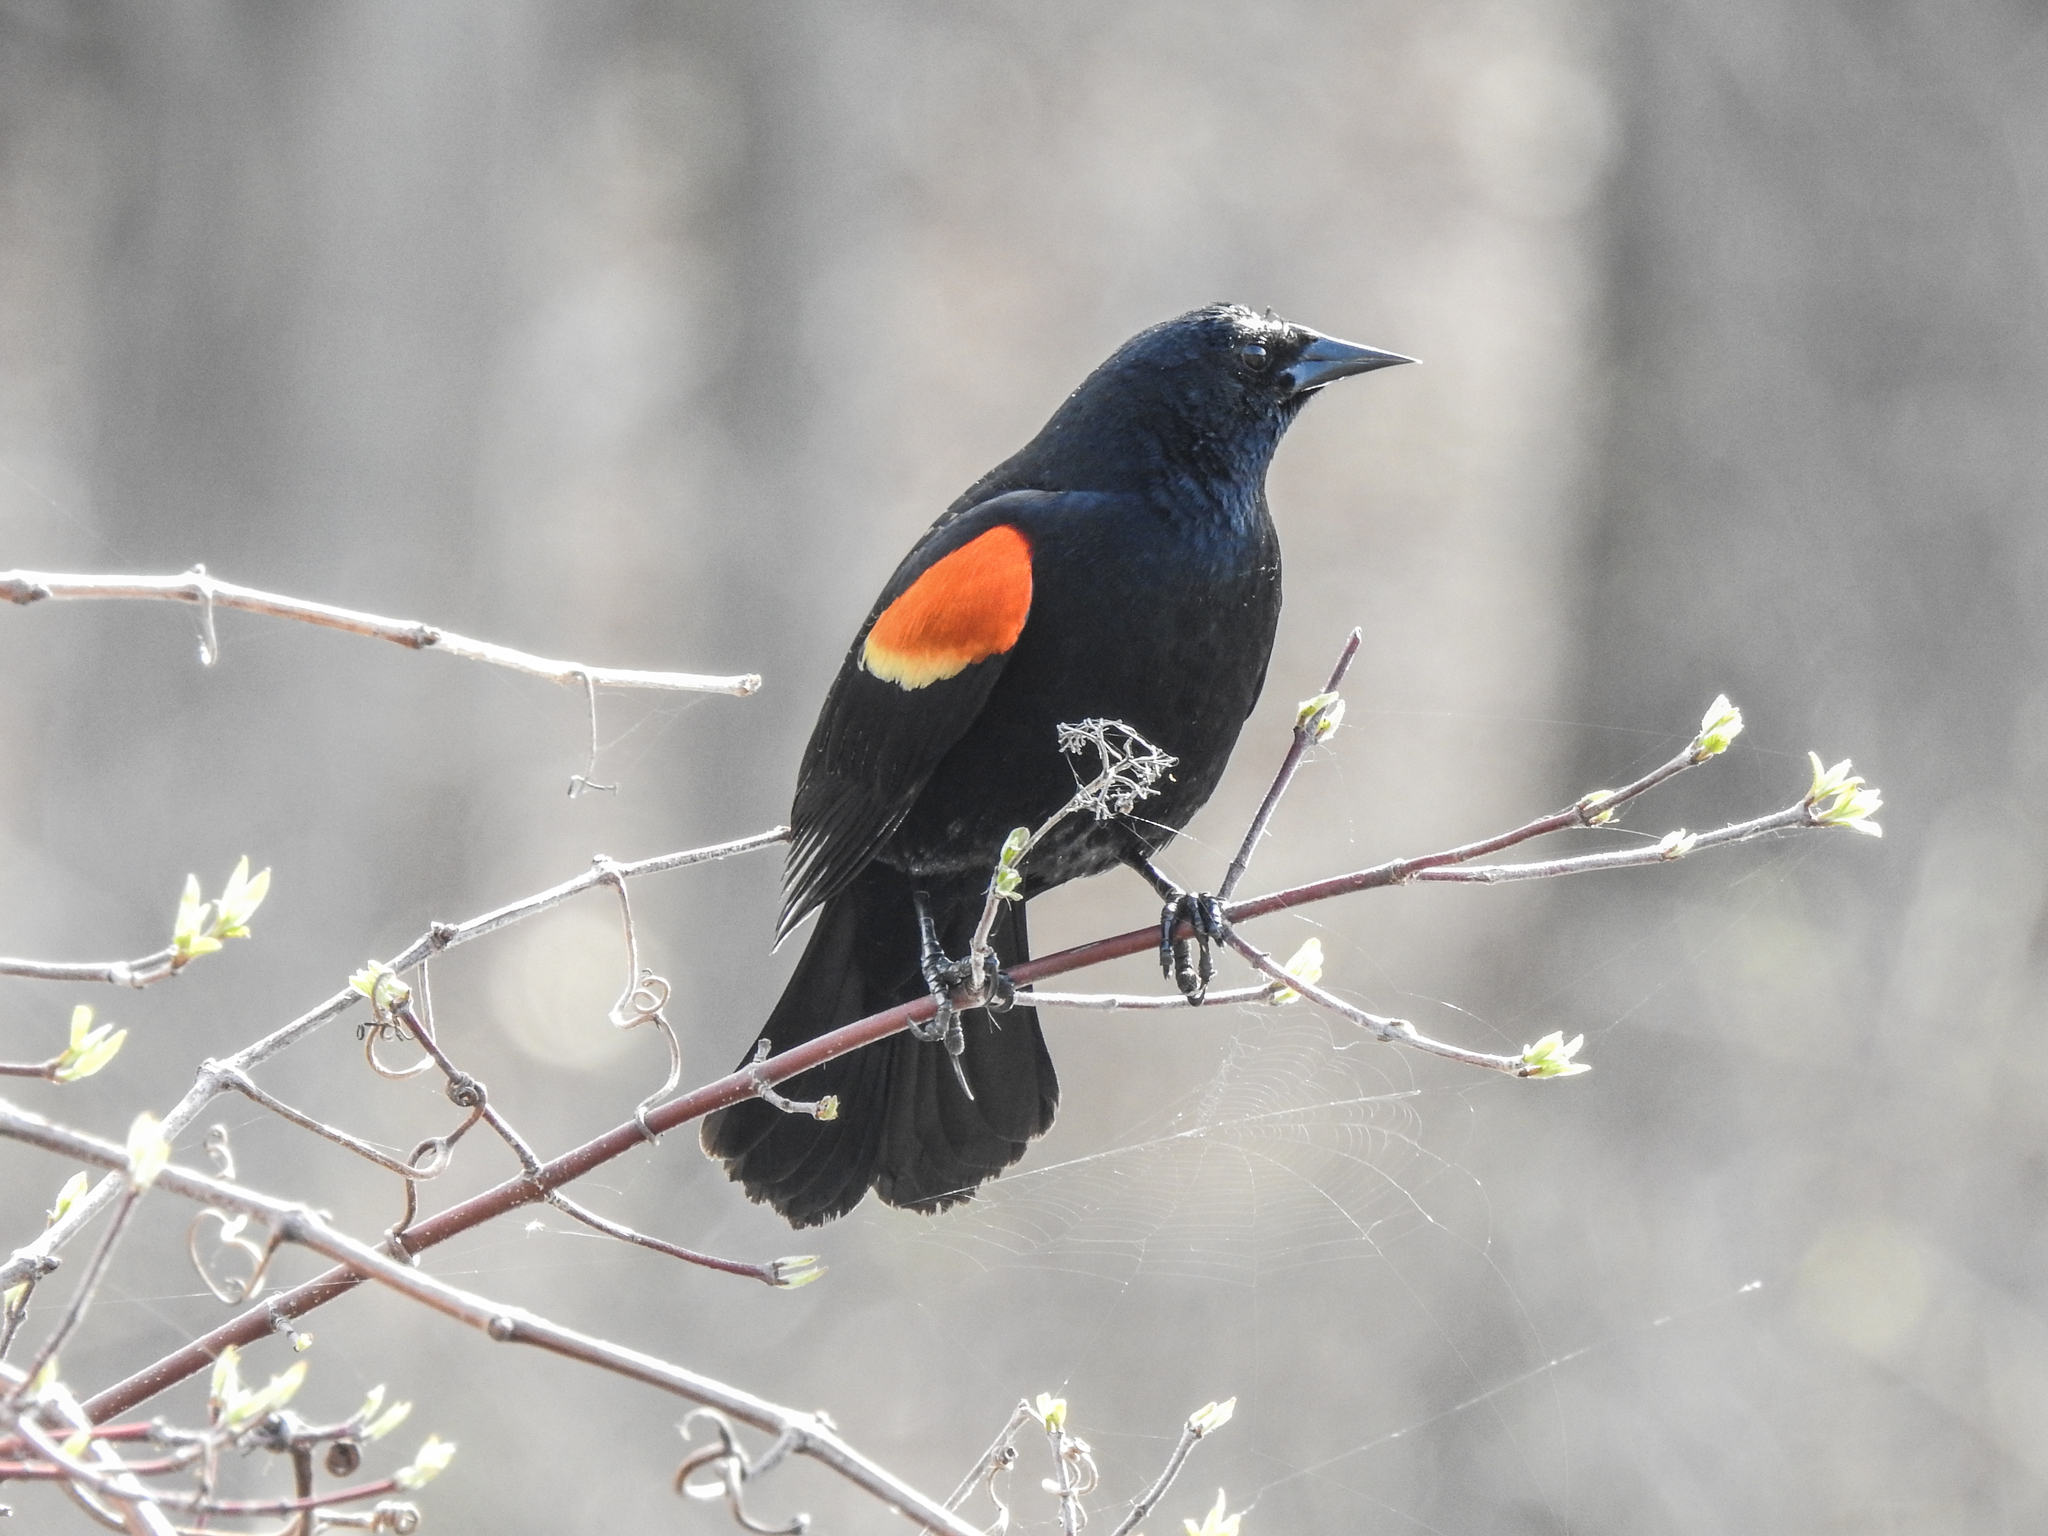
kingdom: Animalia
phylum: Chordata
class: Aves
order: Passeriformes
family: Icteridae
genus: Agelaius
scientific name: Agelaius phoeniceus
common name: Red-winged blackbird
